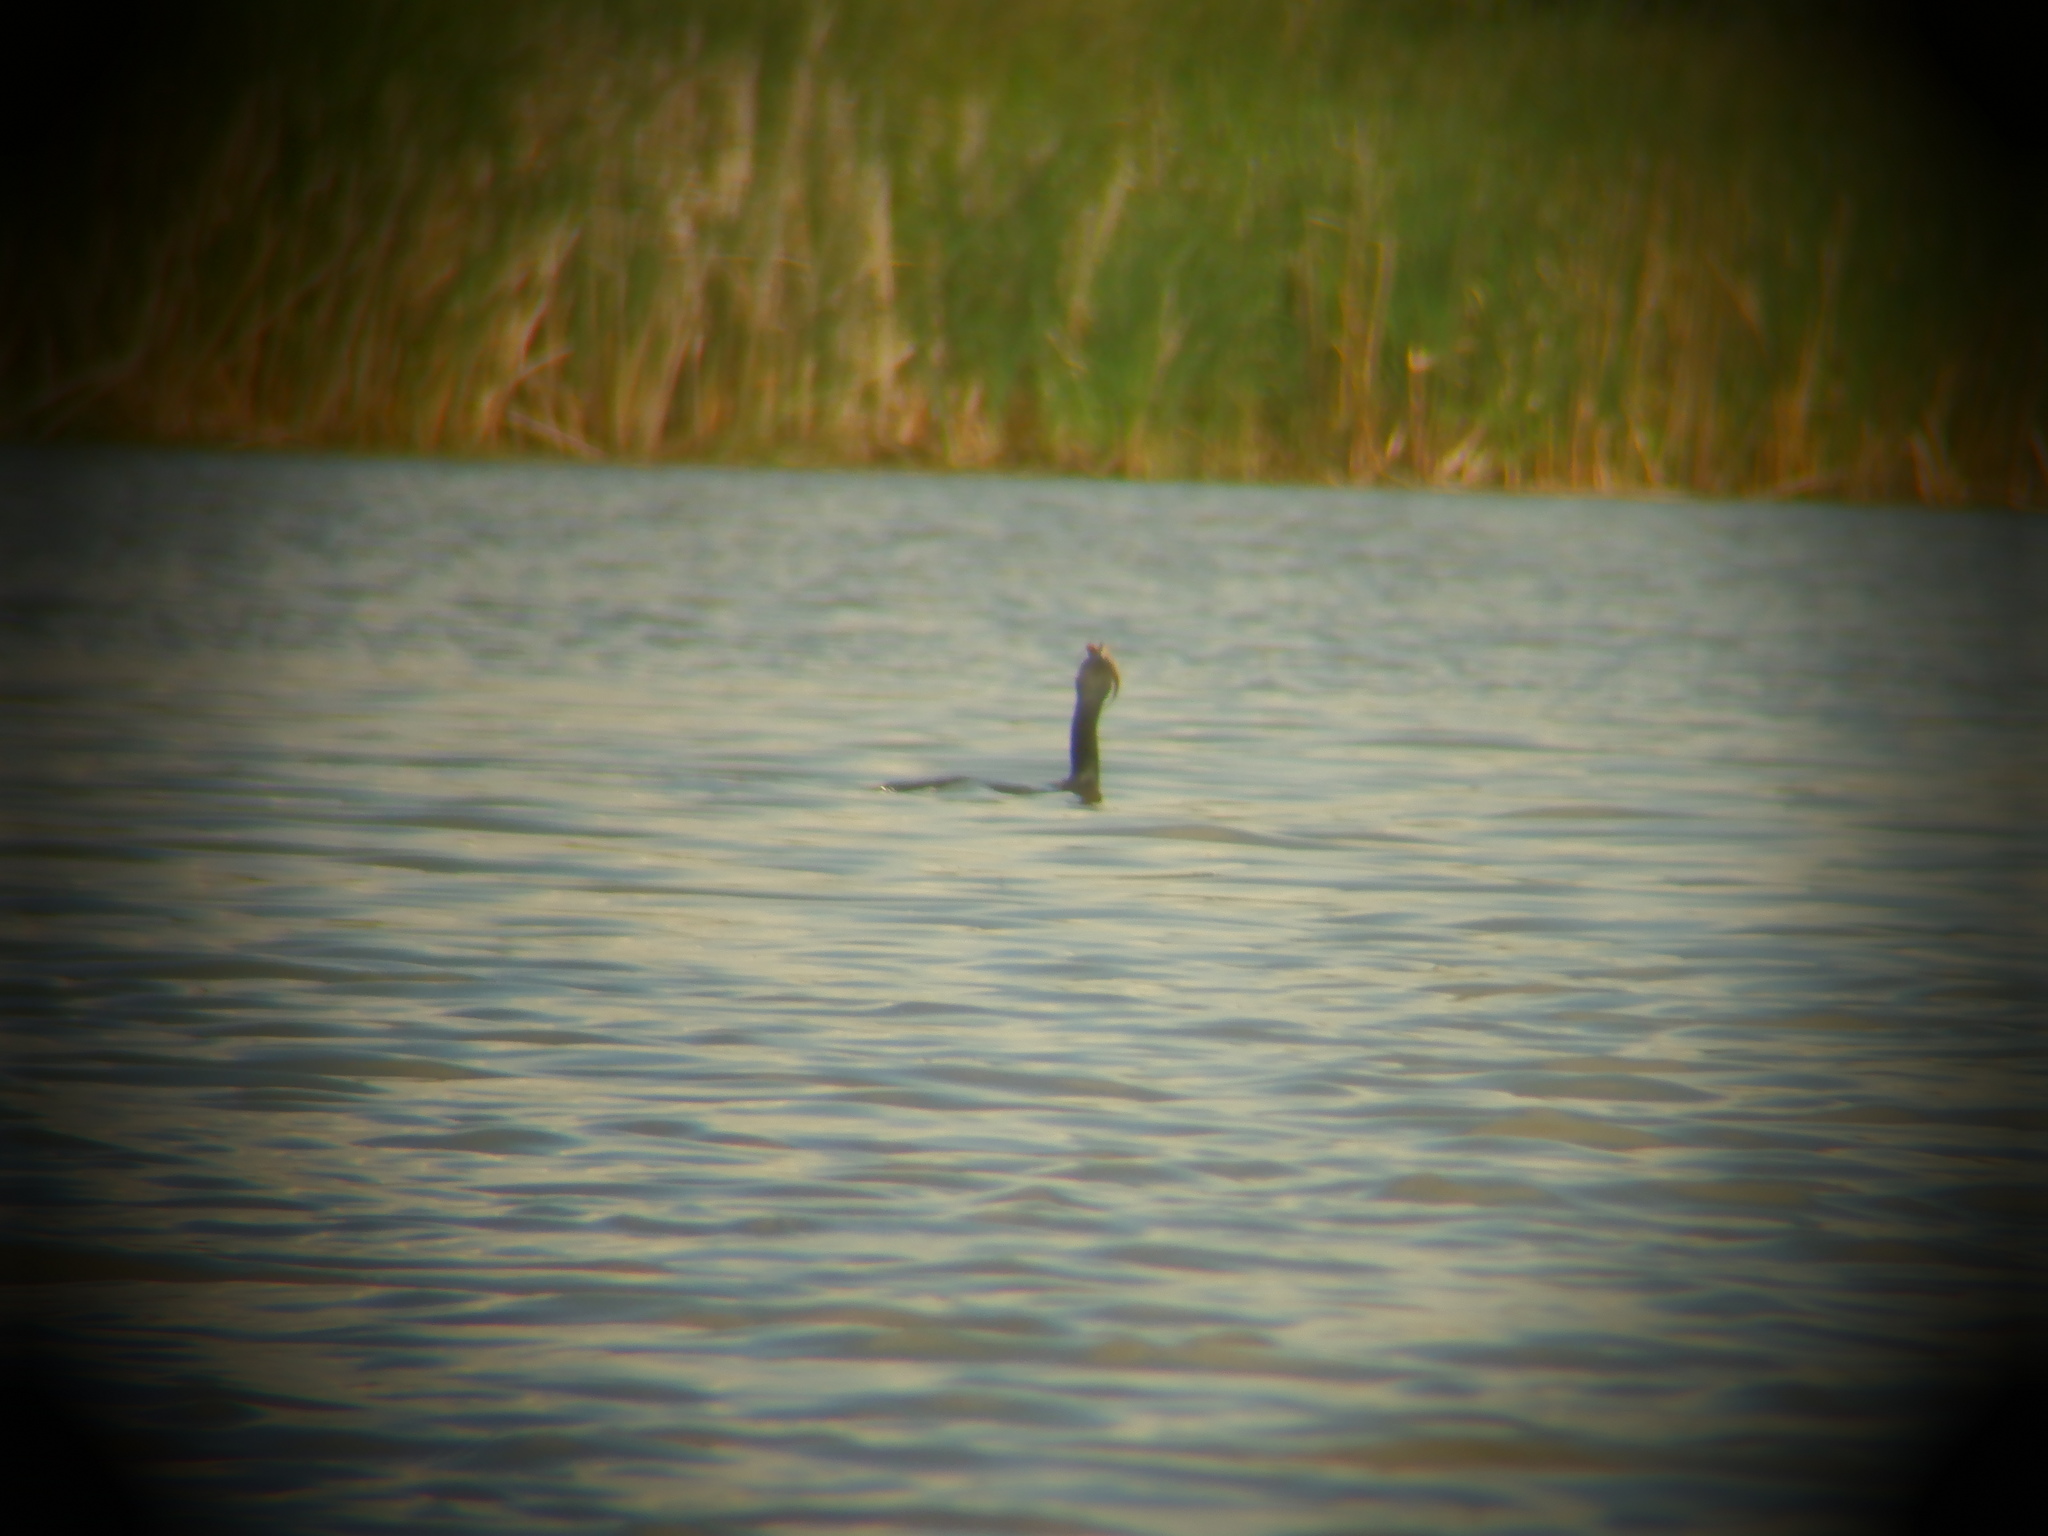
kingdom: Animalia
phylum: Chordata
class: Aves
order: Suliformes
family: Phalacrocoracidae
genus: Phalacrocorax
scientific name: Phalacrocorax auritus
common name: Double-crested cormorant
